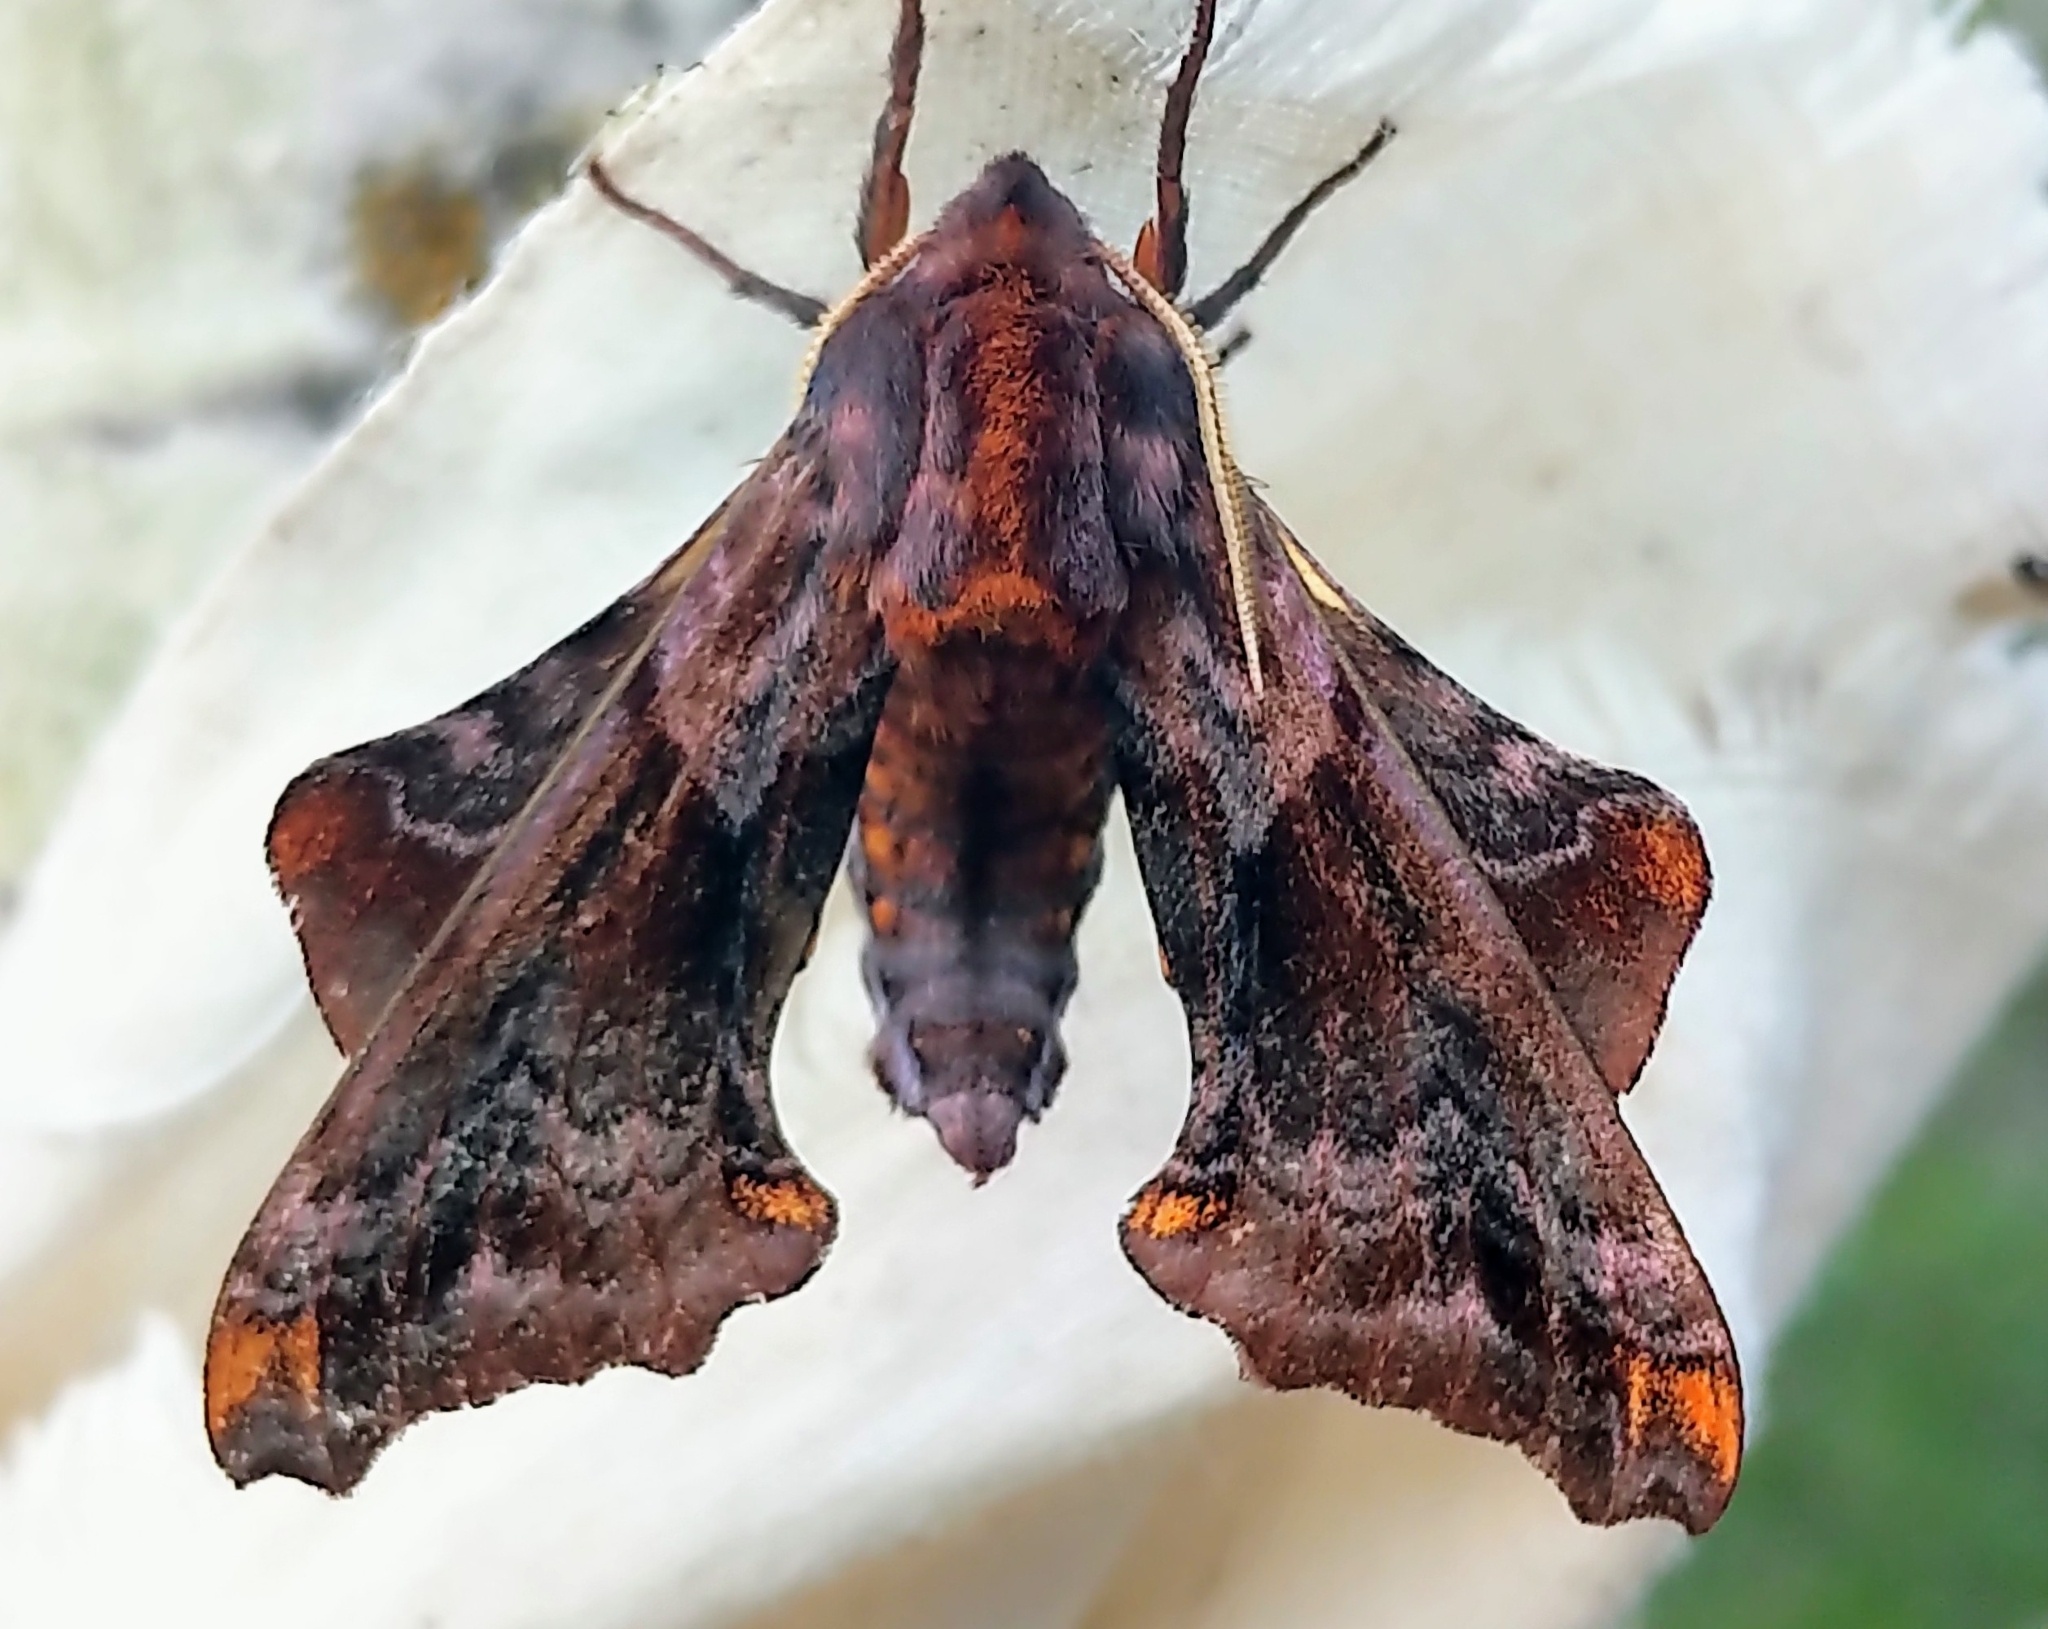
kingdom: Animalia
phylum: Arthropoda
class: Insecta
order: Lepidoptera
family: Sphingidae
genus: Paonias
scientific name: Paonias myops
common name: Small-eyed sphinx
